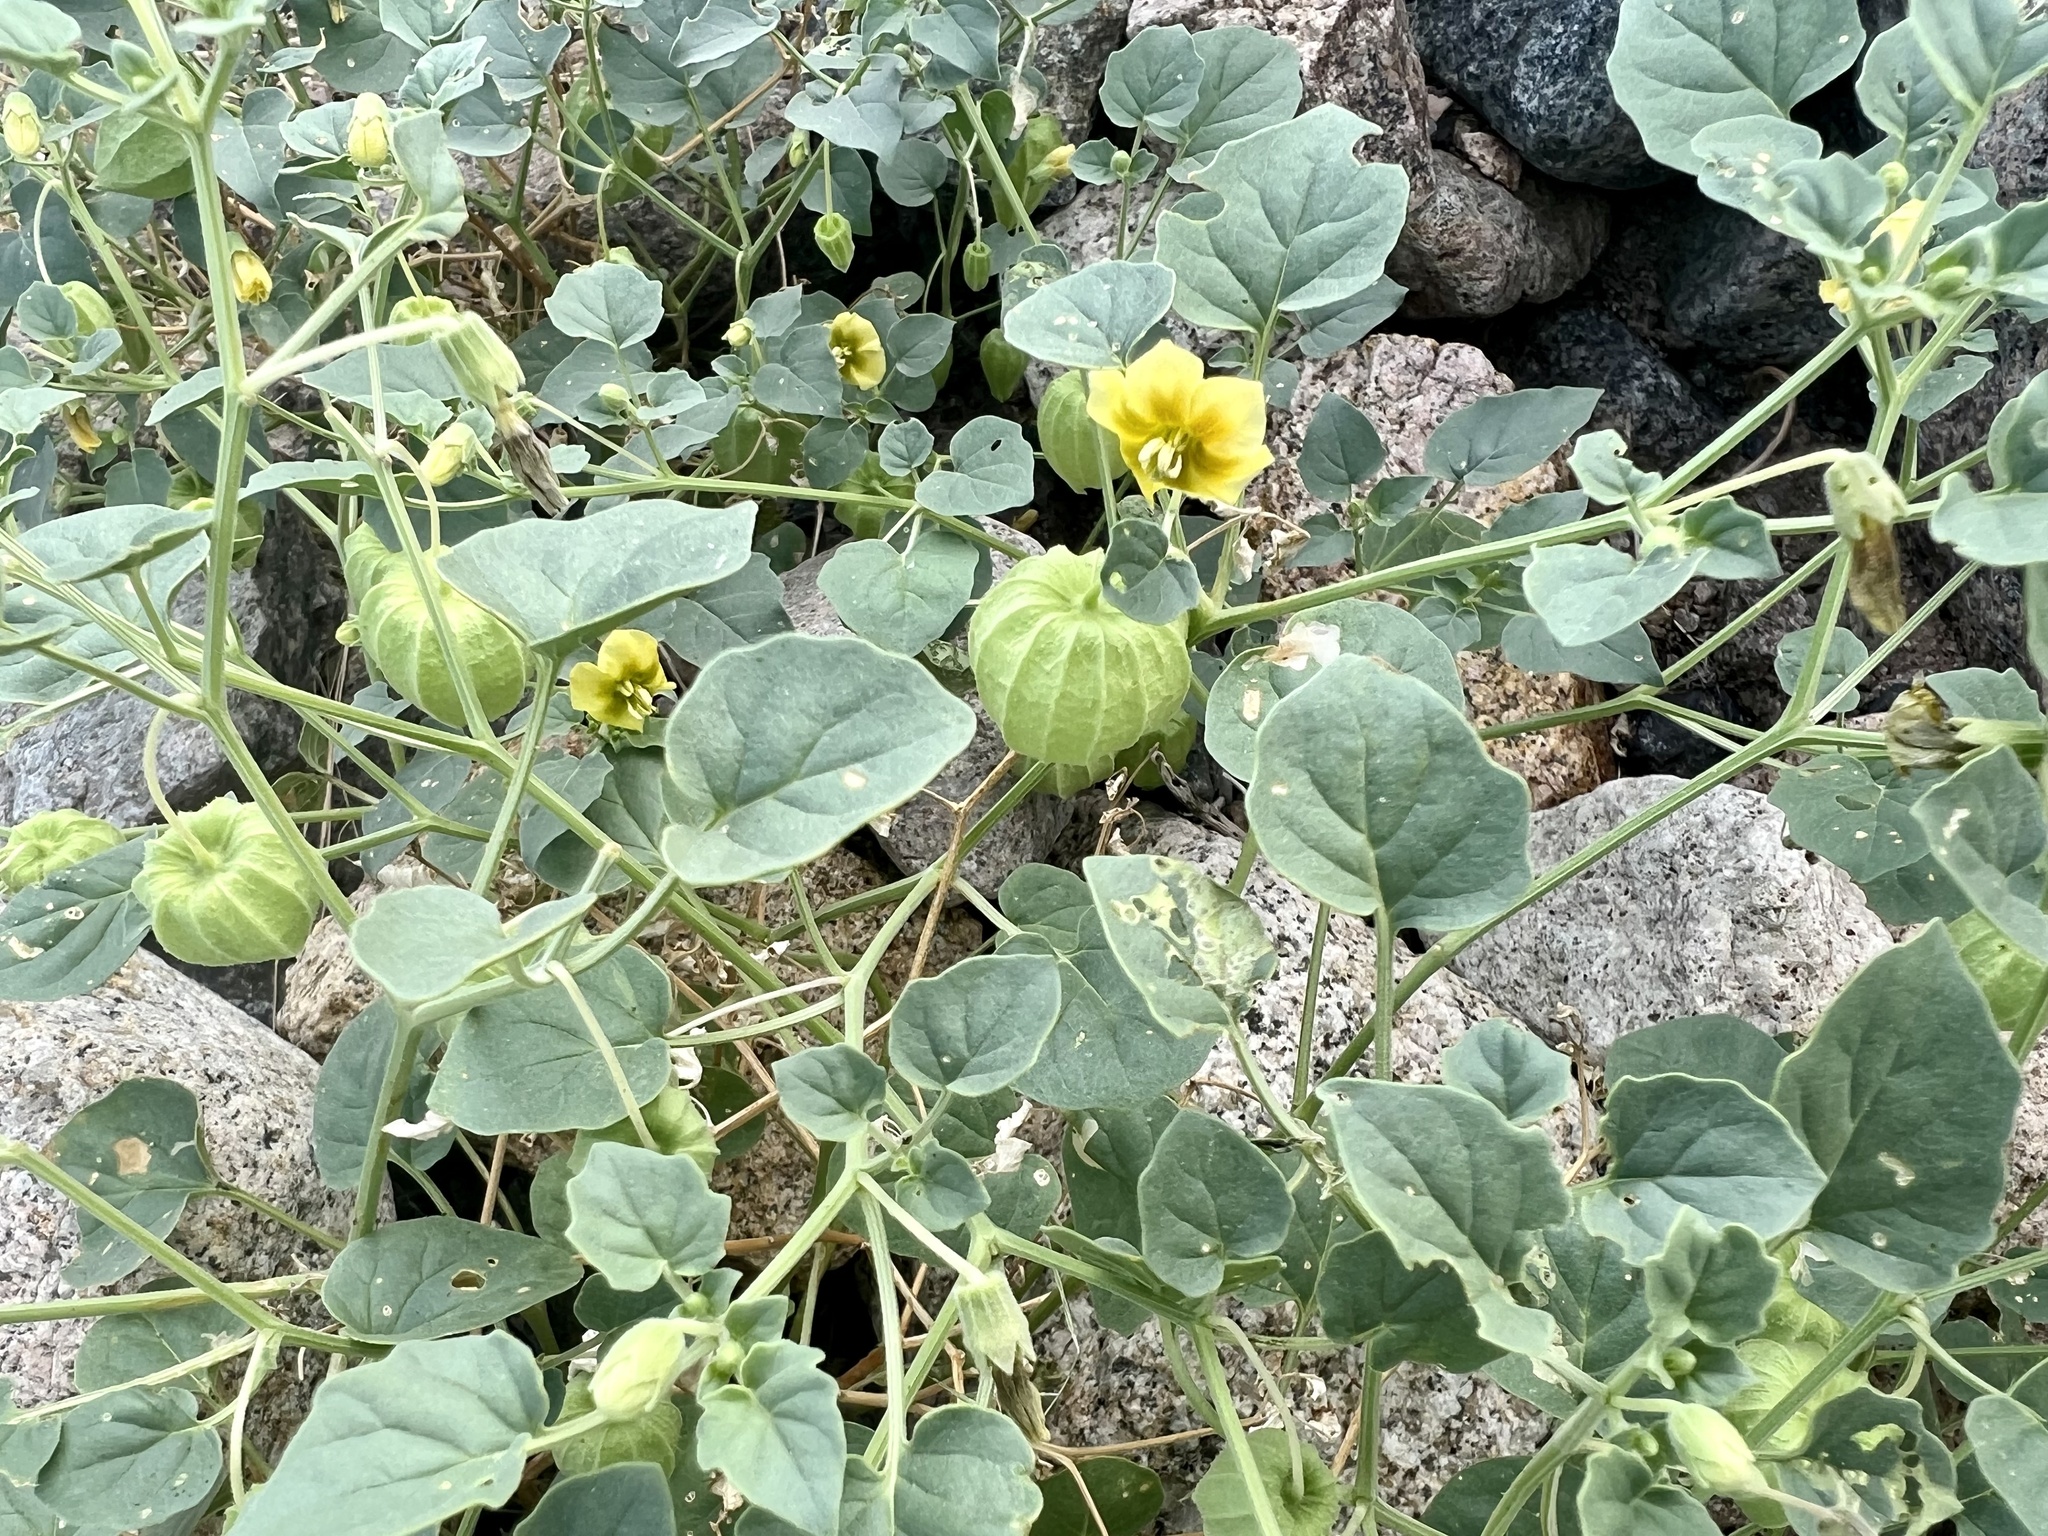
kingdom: Plantae
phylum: Tracheophyta
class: Magnoliopsida
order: Solanales
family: Solanaceae
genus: Physalis
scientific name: Physalis crassifolia
